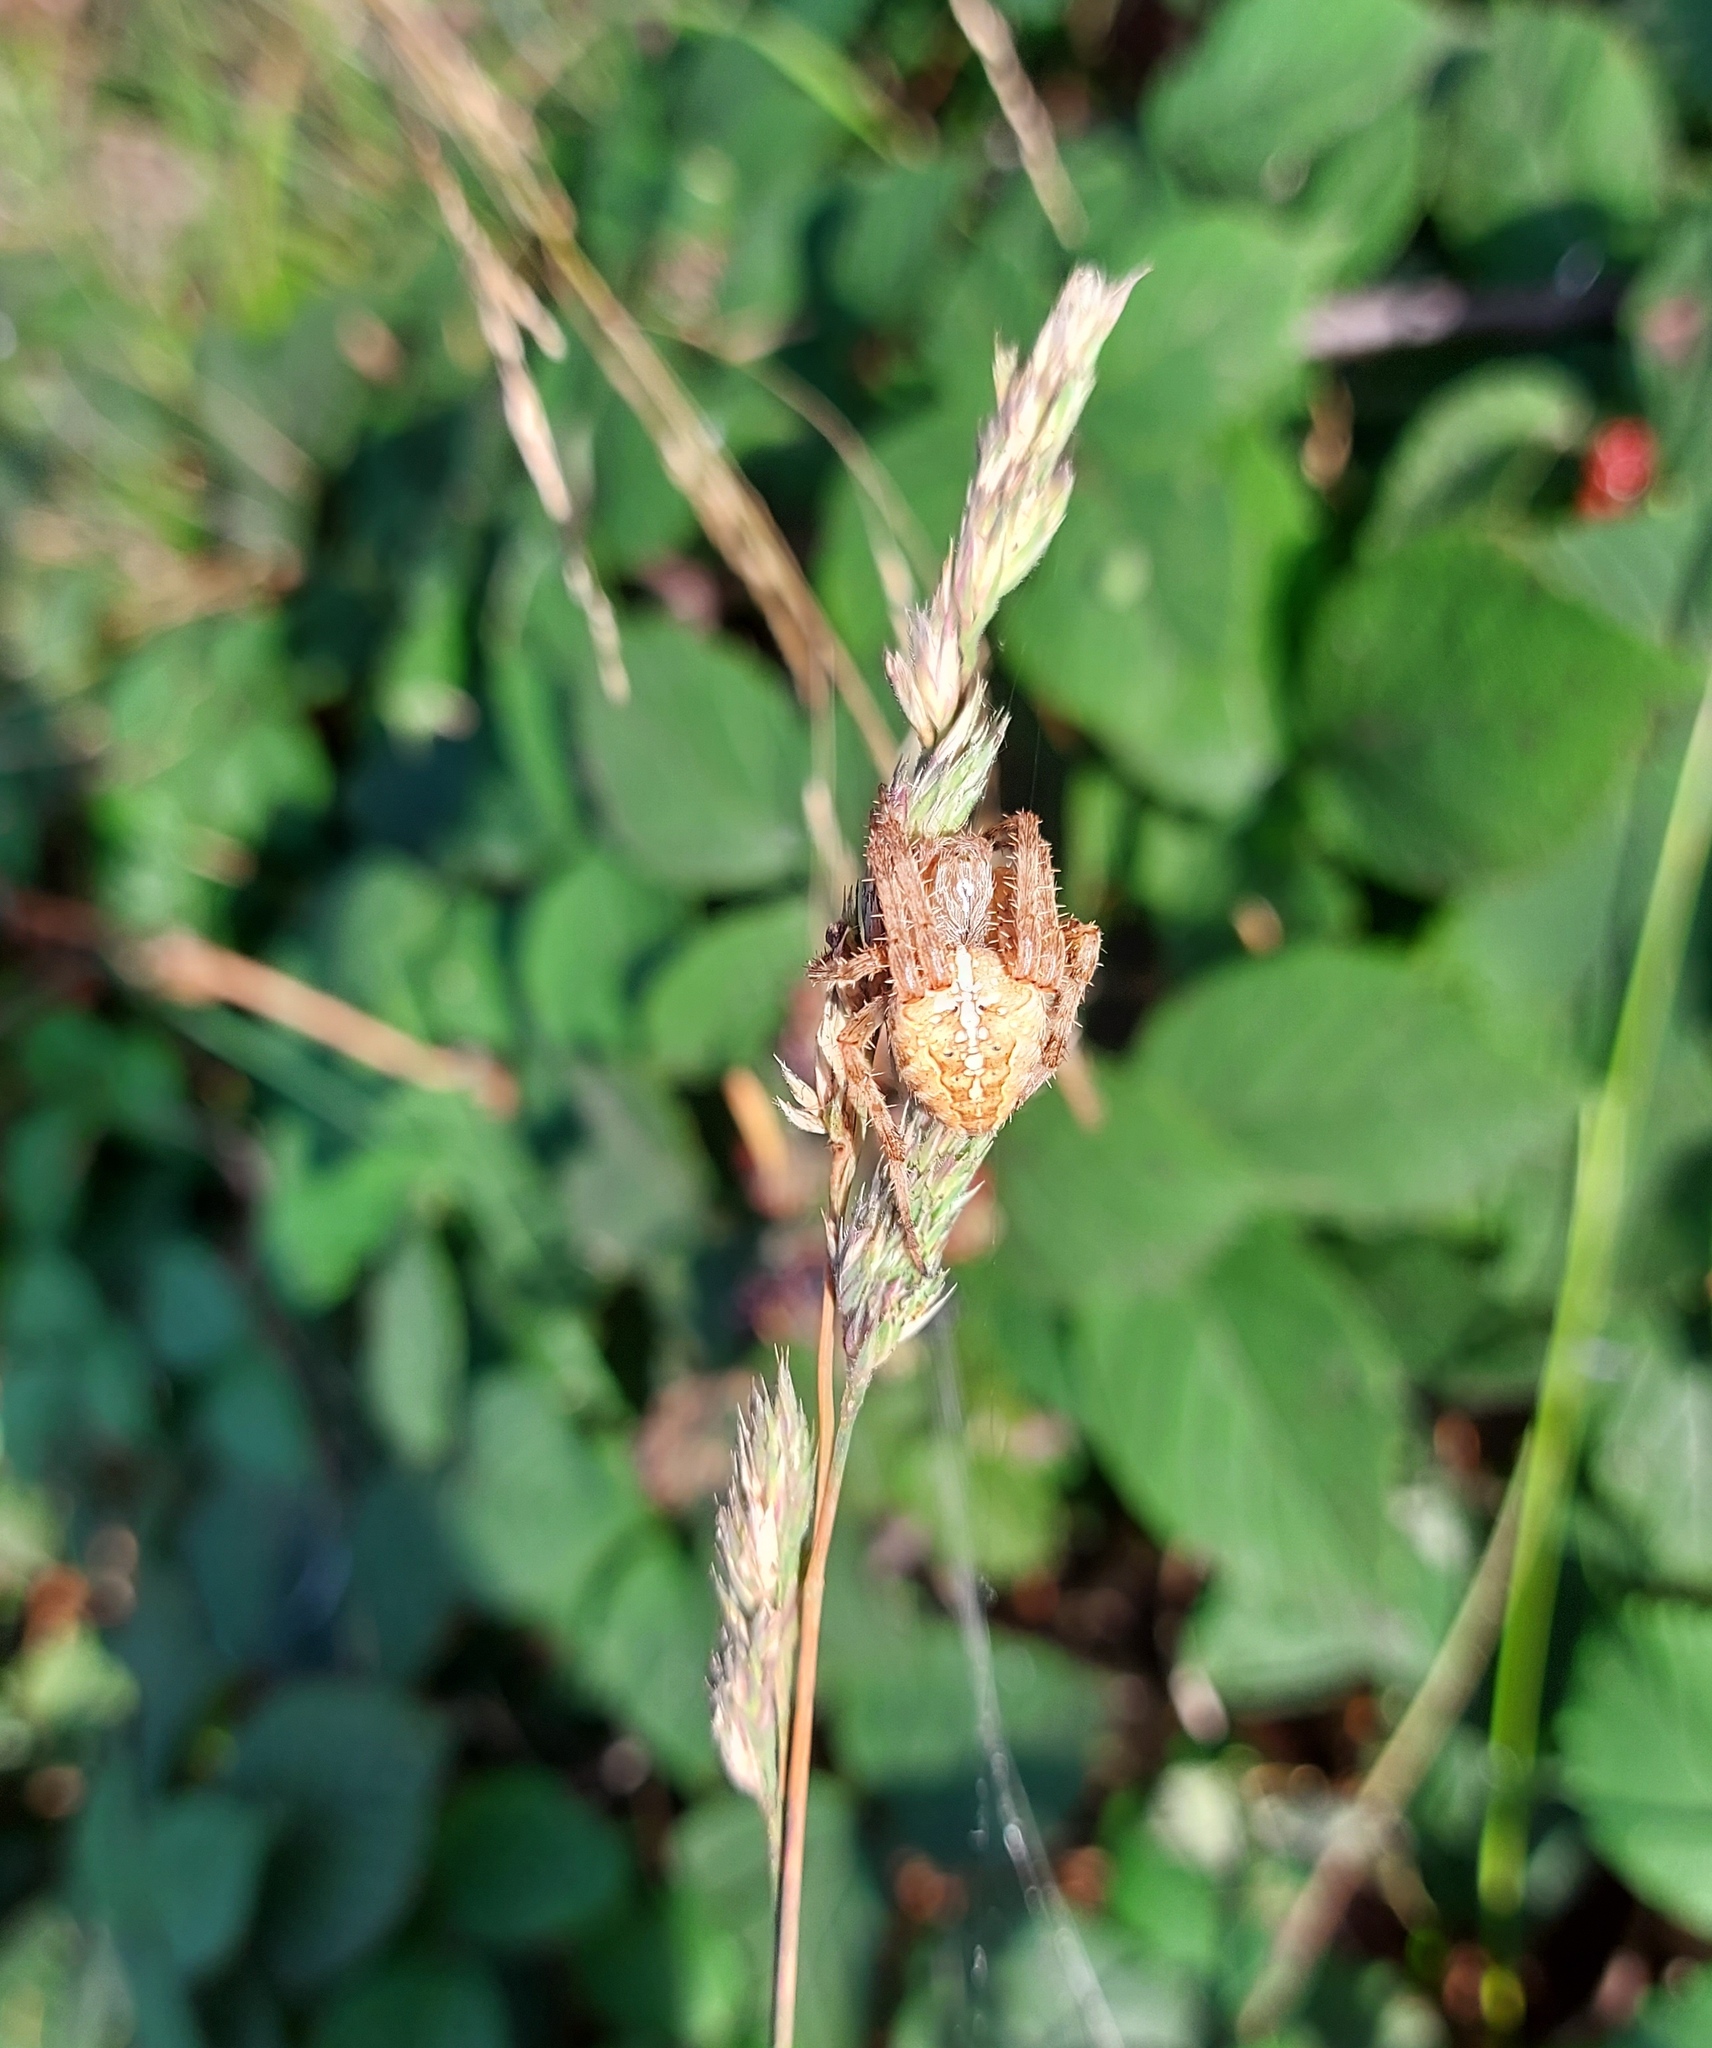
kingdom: Animalia
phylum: Arthropoda
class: Arachnida
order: Araneae
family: Araneidae
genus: Araneus
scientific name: Araneus diadematus
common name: Cross orbweaver
